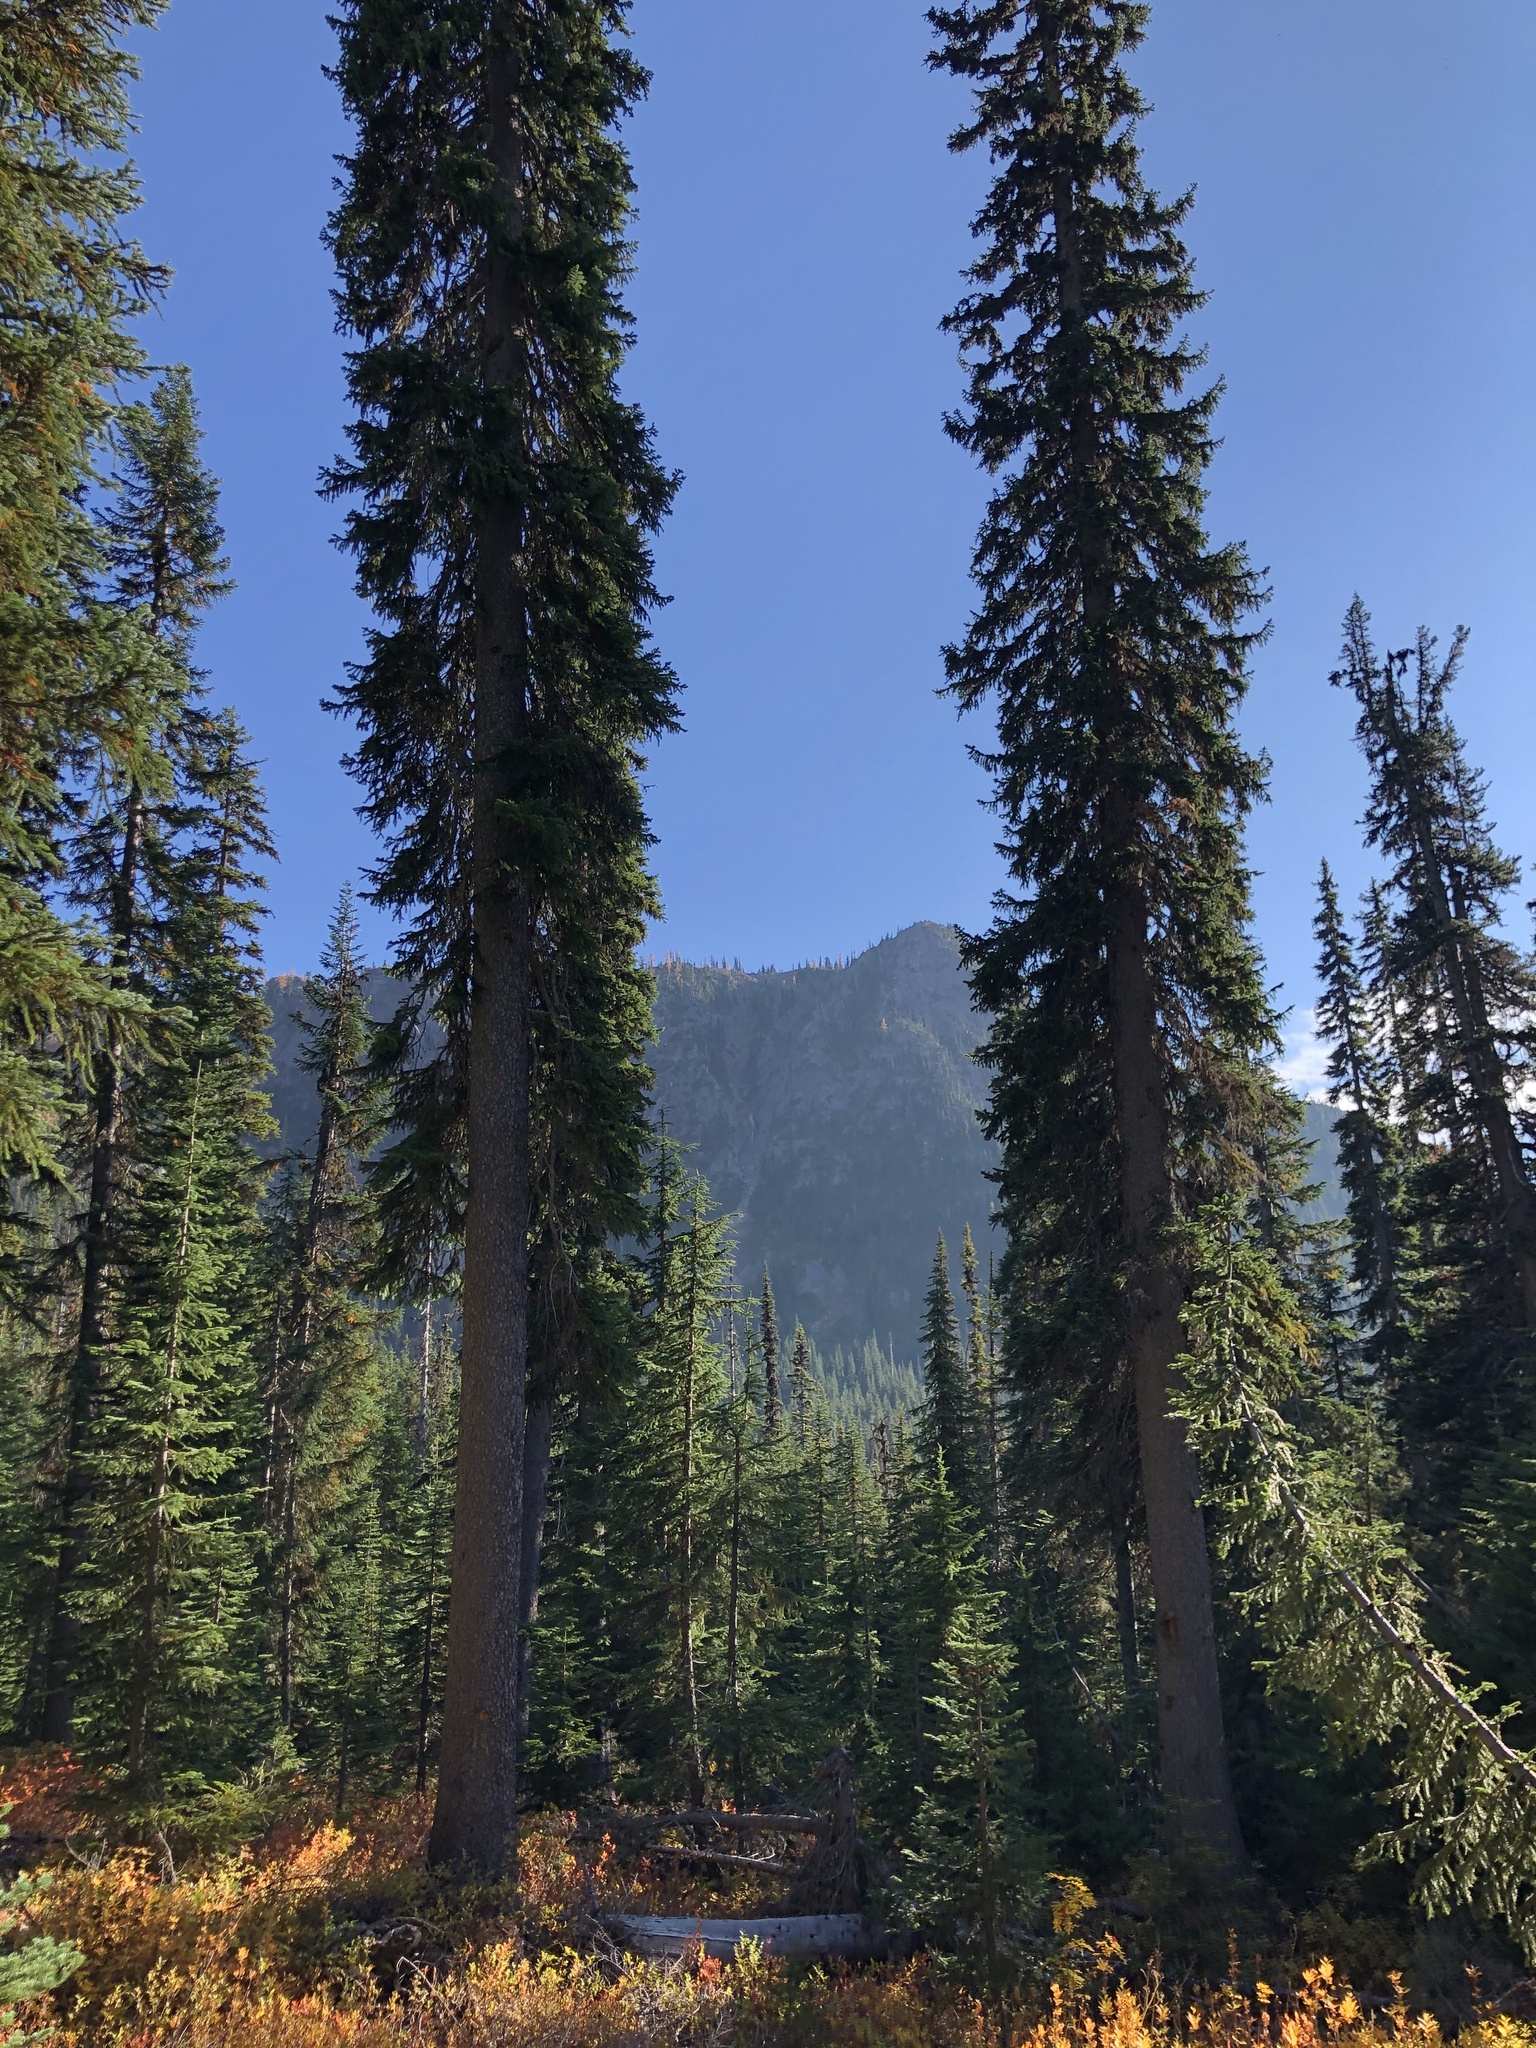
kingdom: Plantae
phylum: Tracheophyta
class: Pinopsida
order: Pinales
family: Pinaceae
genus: Picea
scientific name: Picea engelmannii
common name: Engelmann spruce
